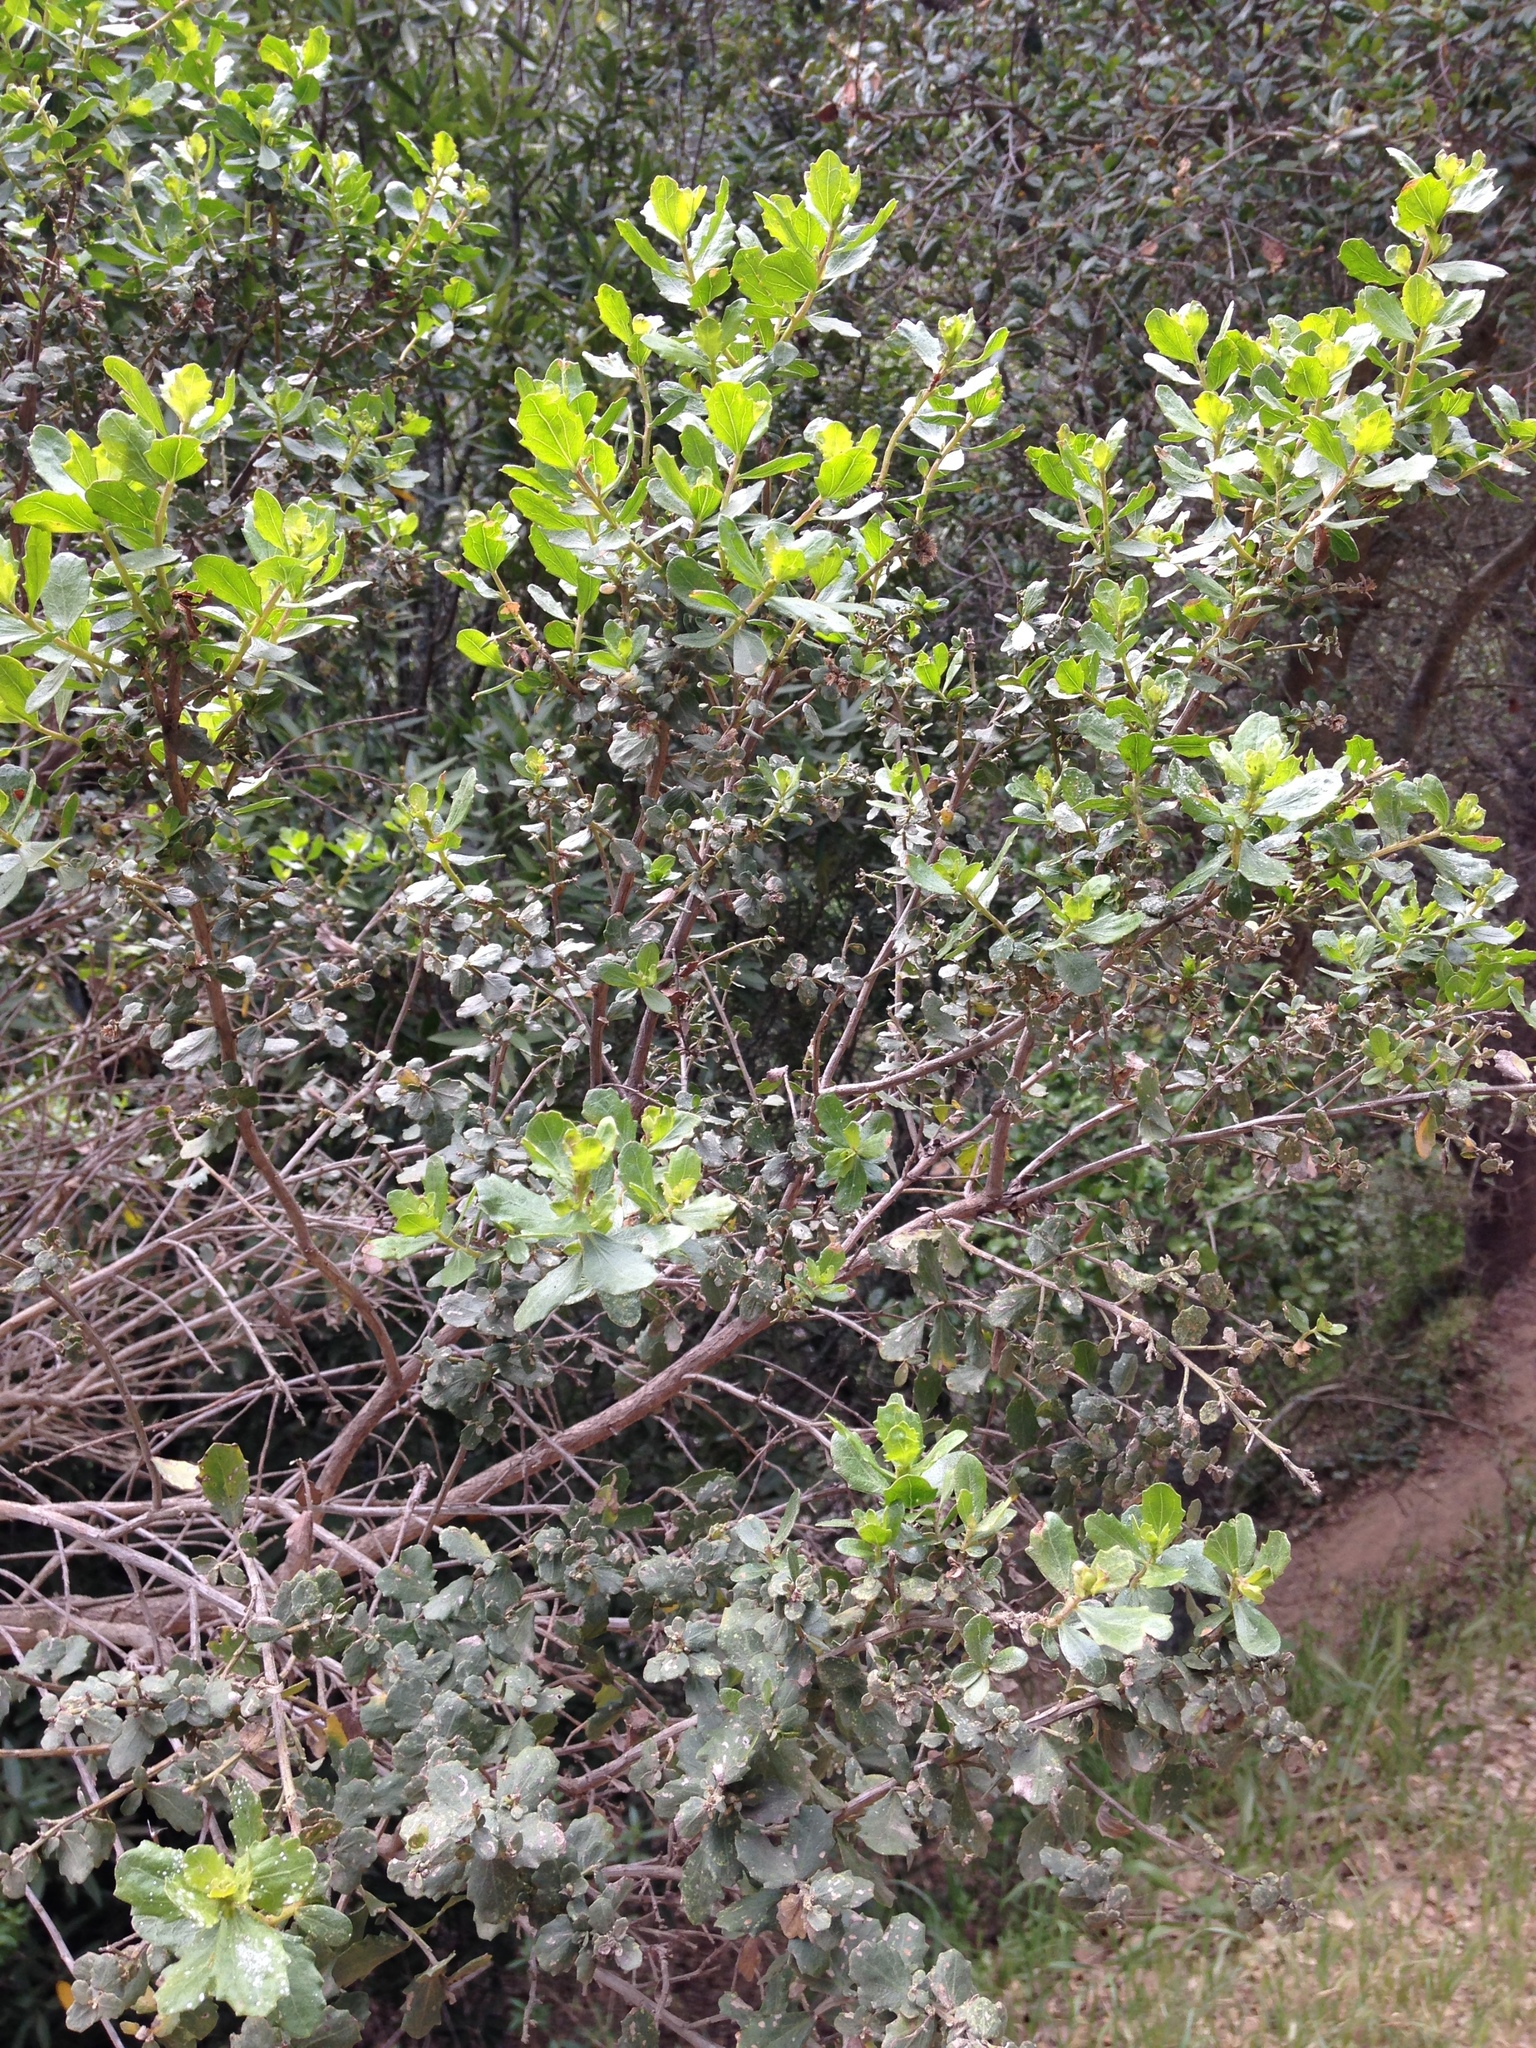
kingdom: Plantae
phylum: Tracheophyta
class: Magnoliopsida
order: Asterales
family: Asteraceae
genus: Baccharis
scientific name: Baccharis pilularis
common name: Coyotebrush
